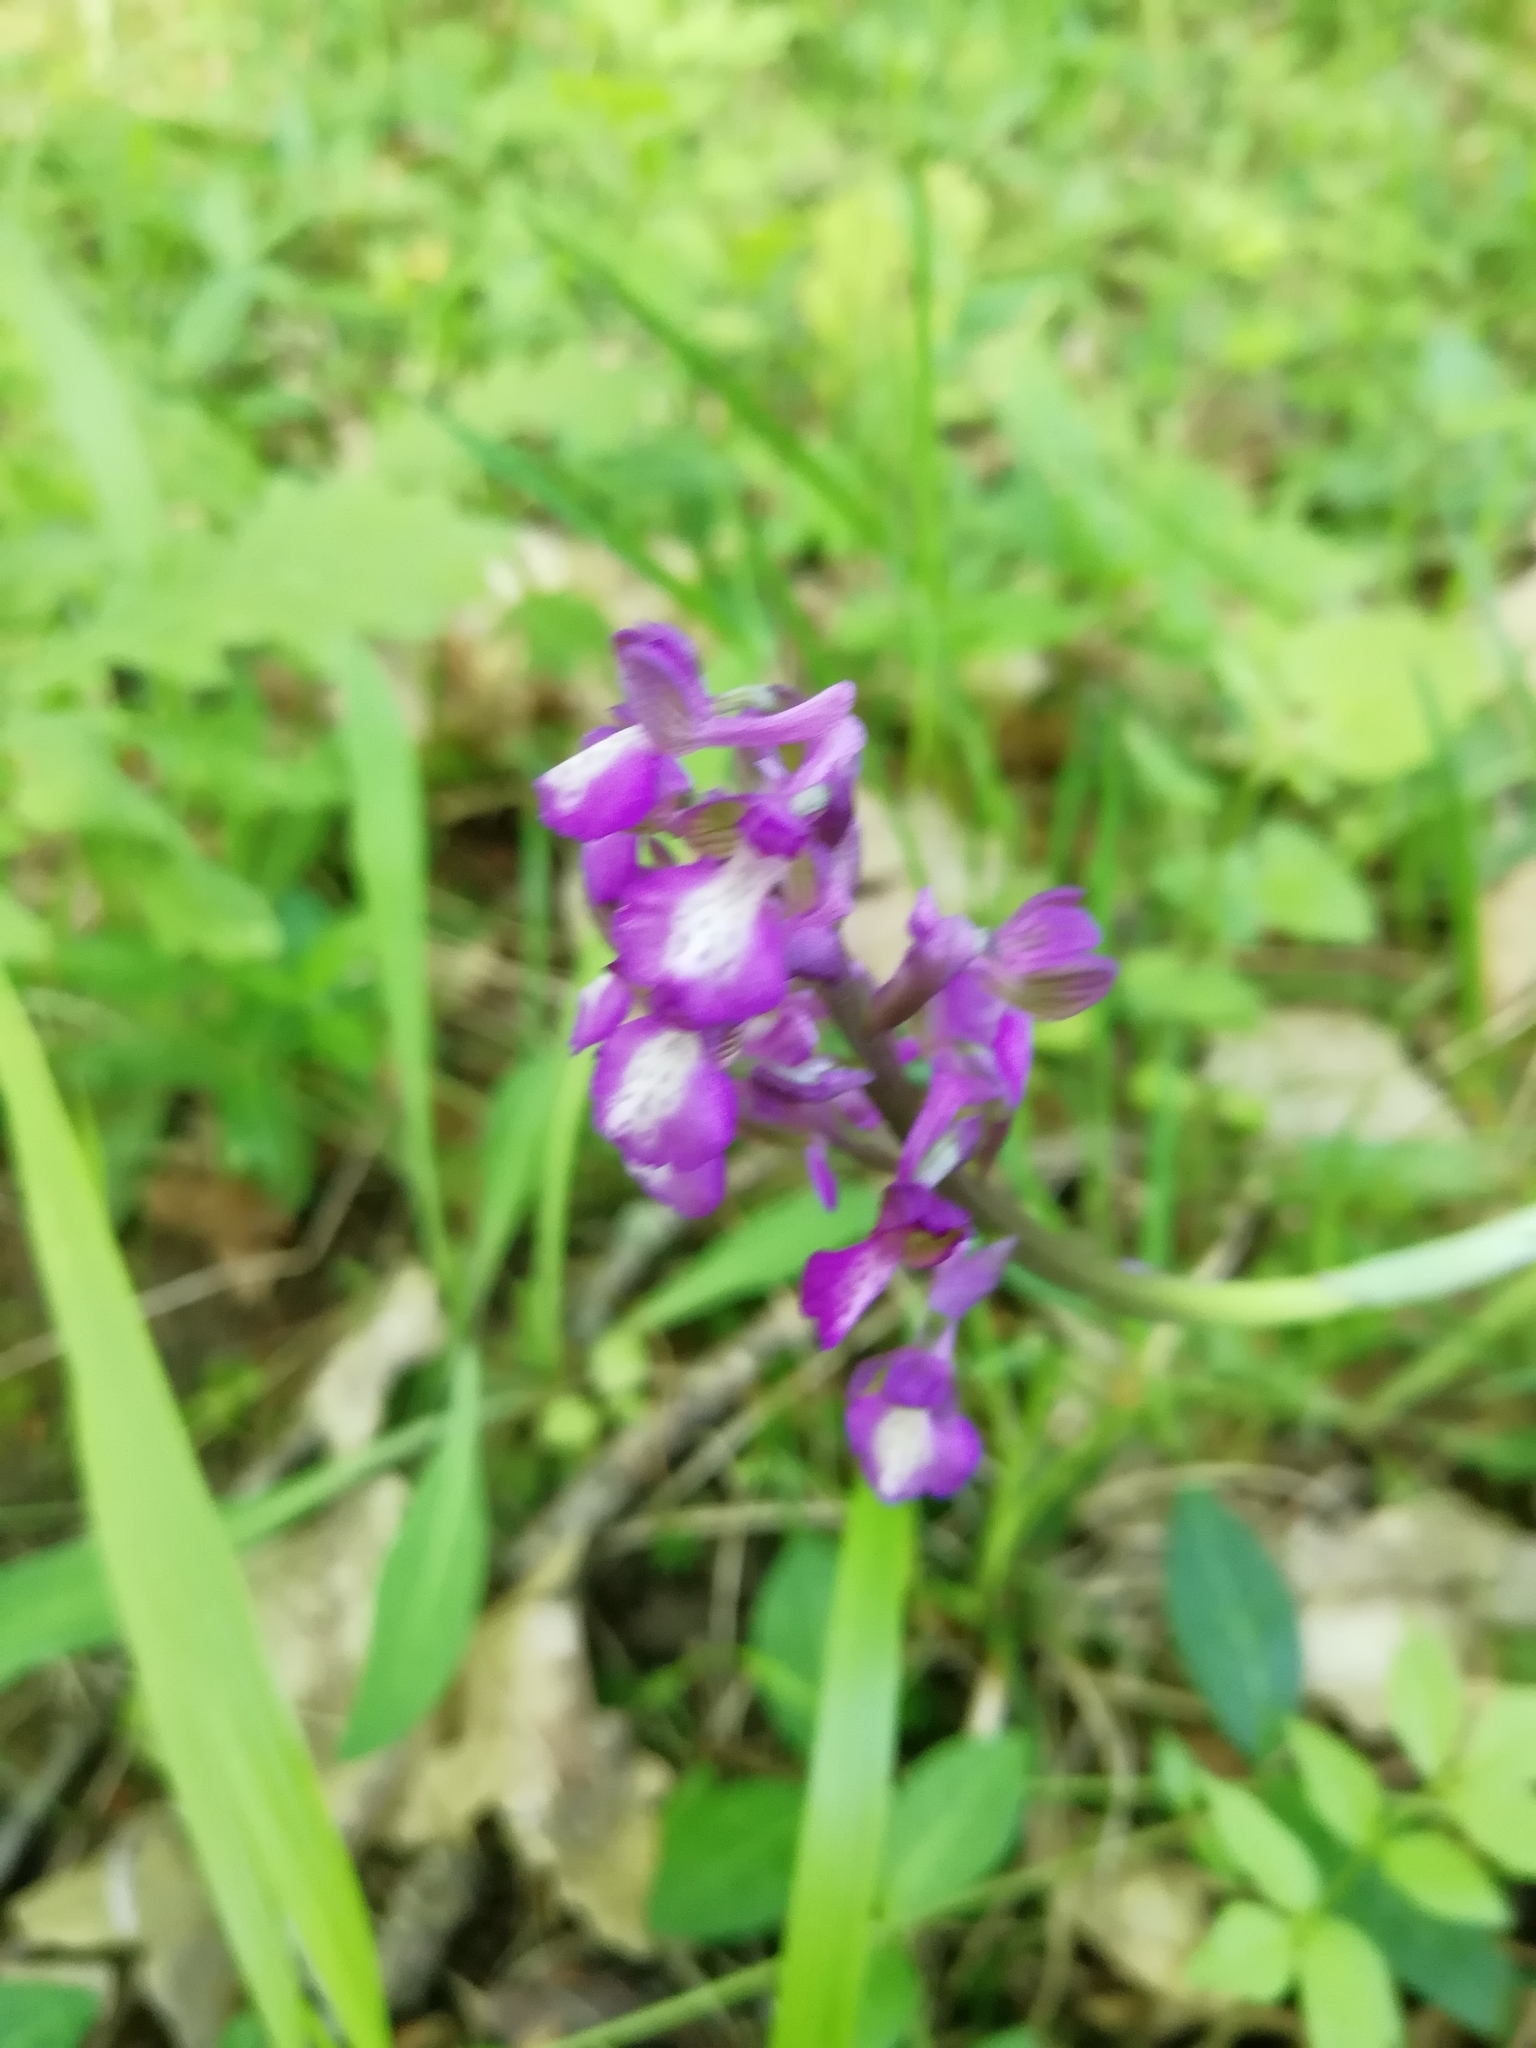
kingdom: Plantae
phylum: Tracheophyta
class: Liliopsida
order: Asparagales
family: Orchidaceae
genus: Anacamptis
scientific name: Anacamptis morio
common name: Green-winged orchid
